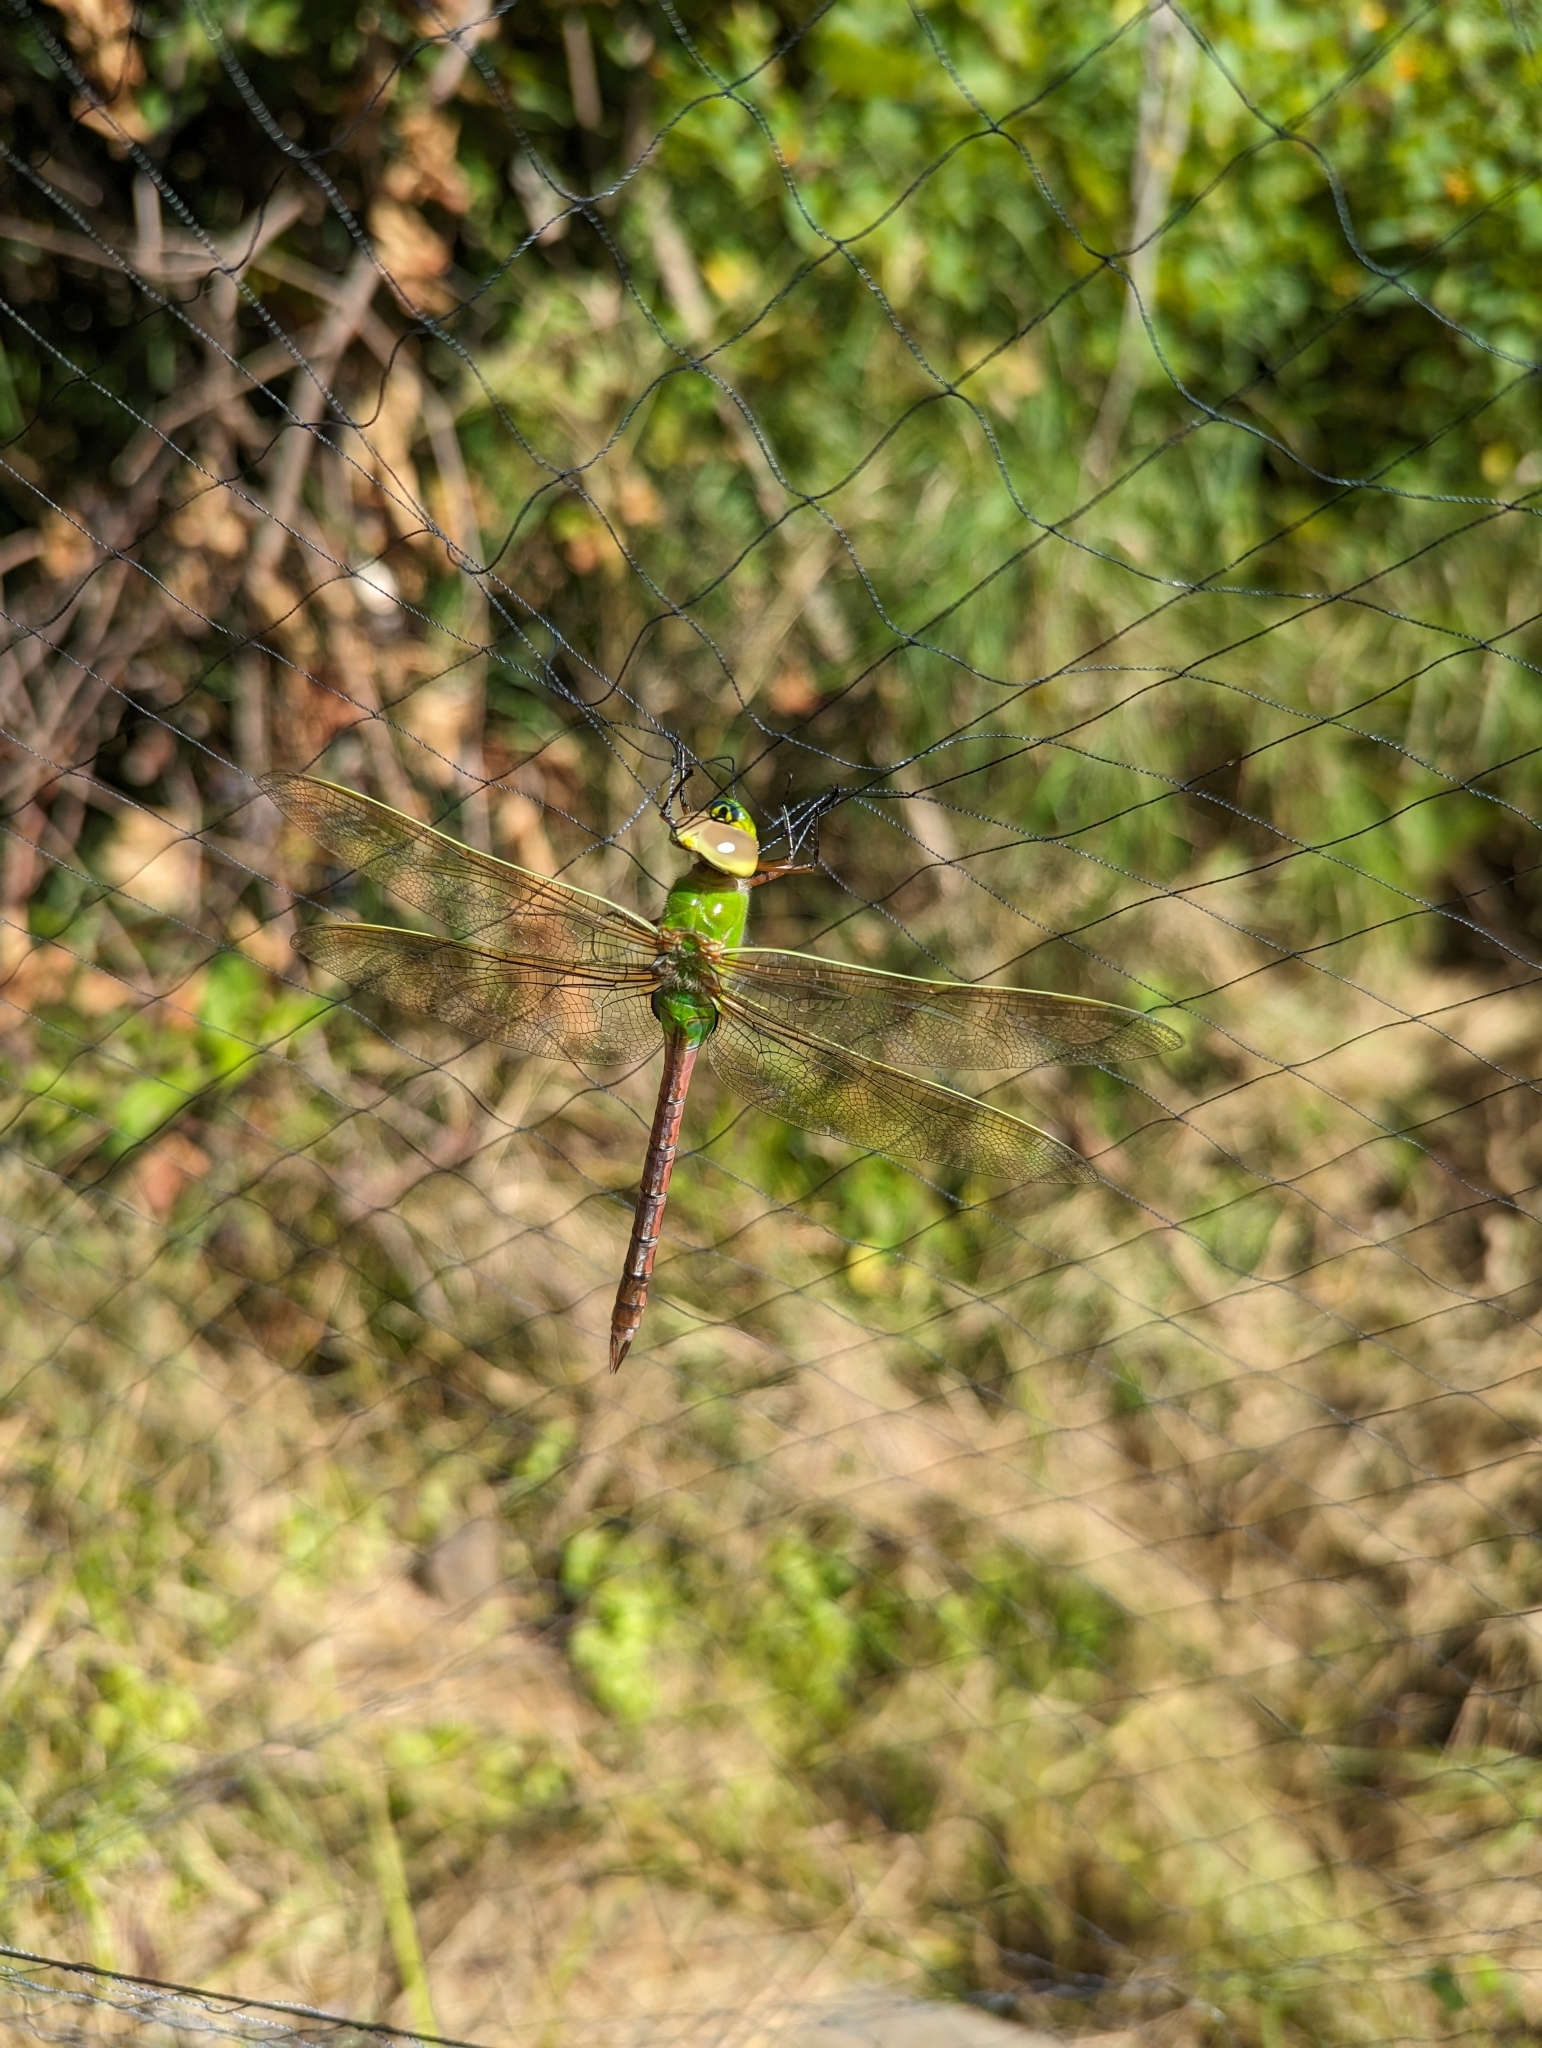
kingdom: Animalia
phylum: Arthropoda
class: Insecta
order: Odonata
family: Aeshnidae
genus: Anax
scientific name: Anax junius
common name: Common green darner
